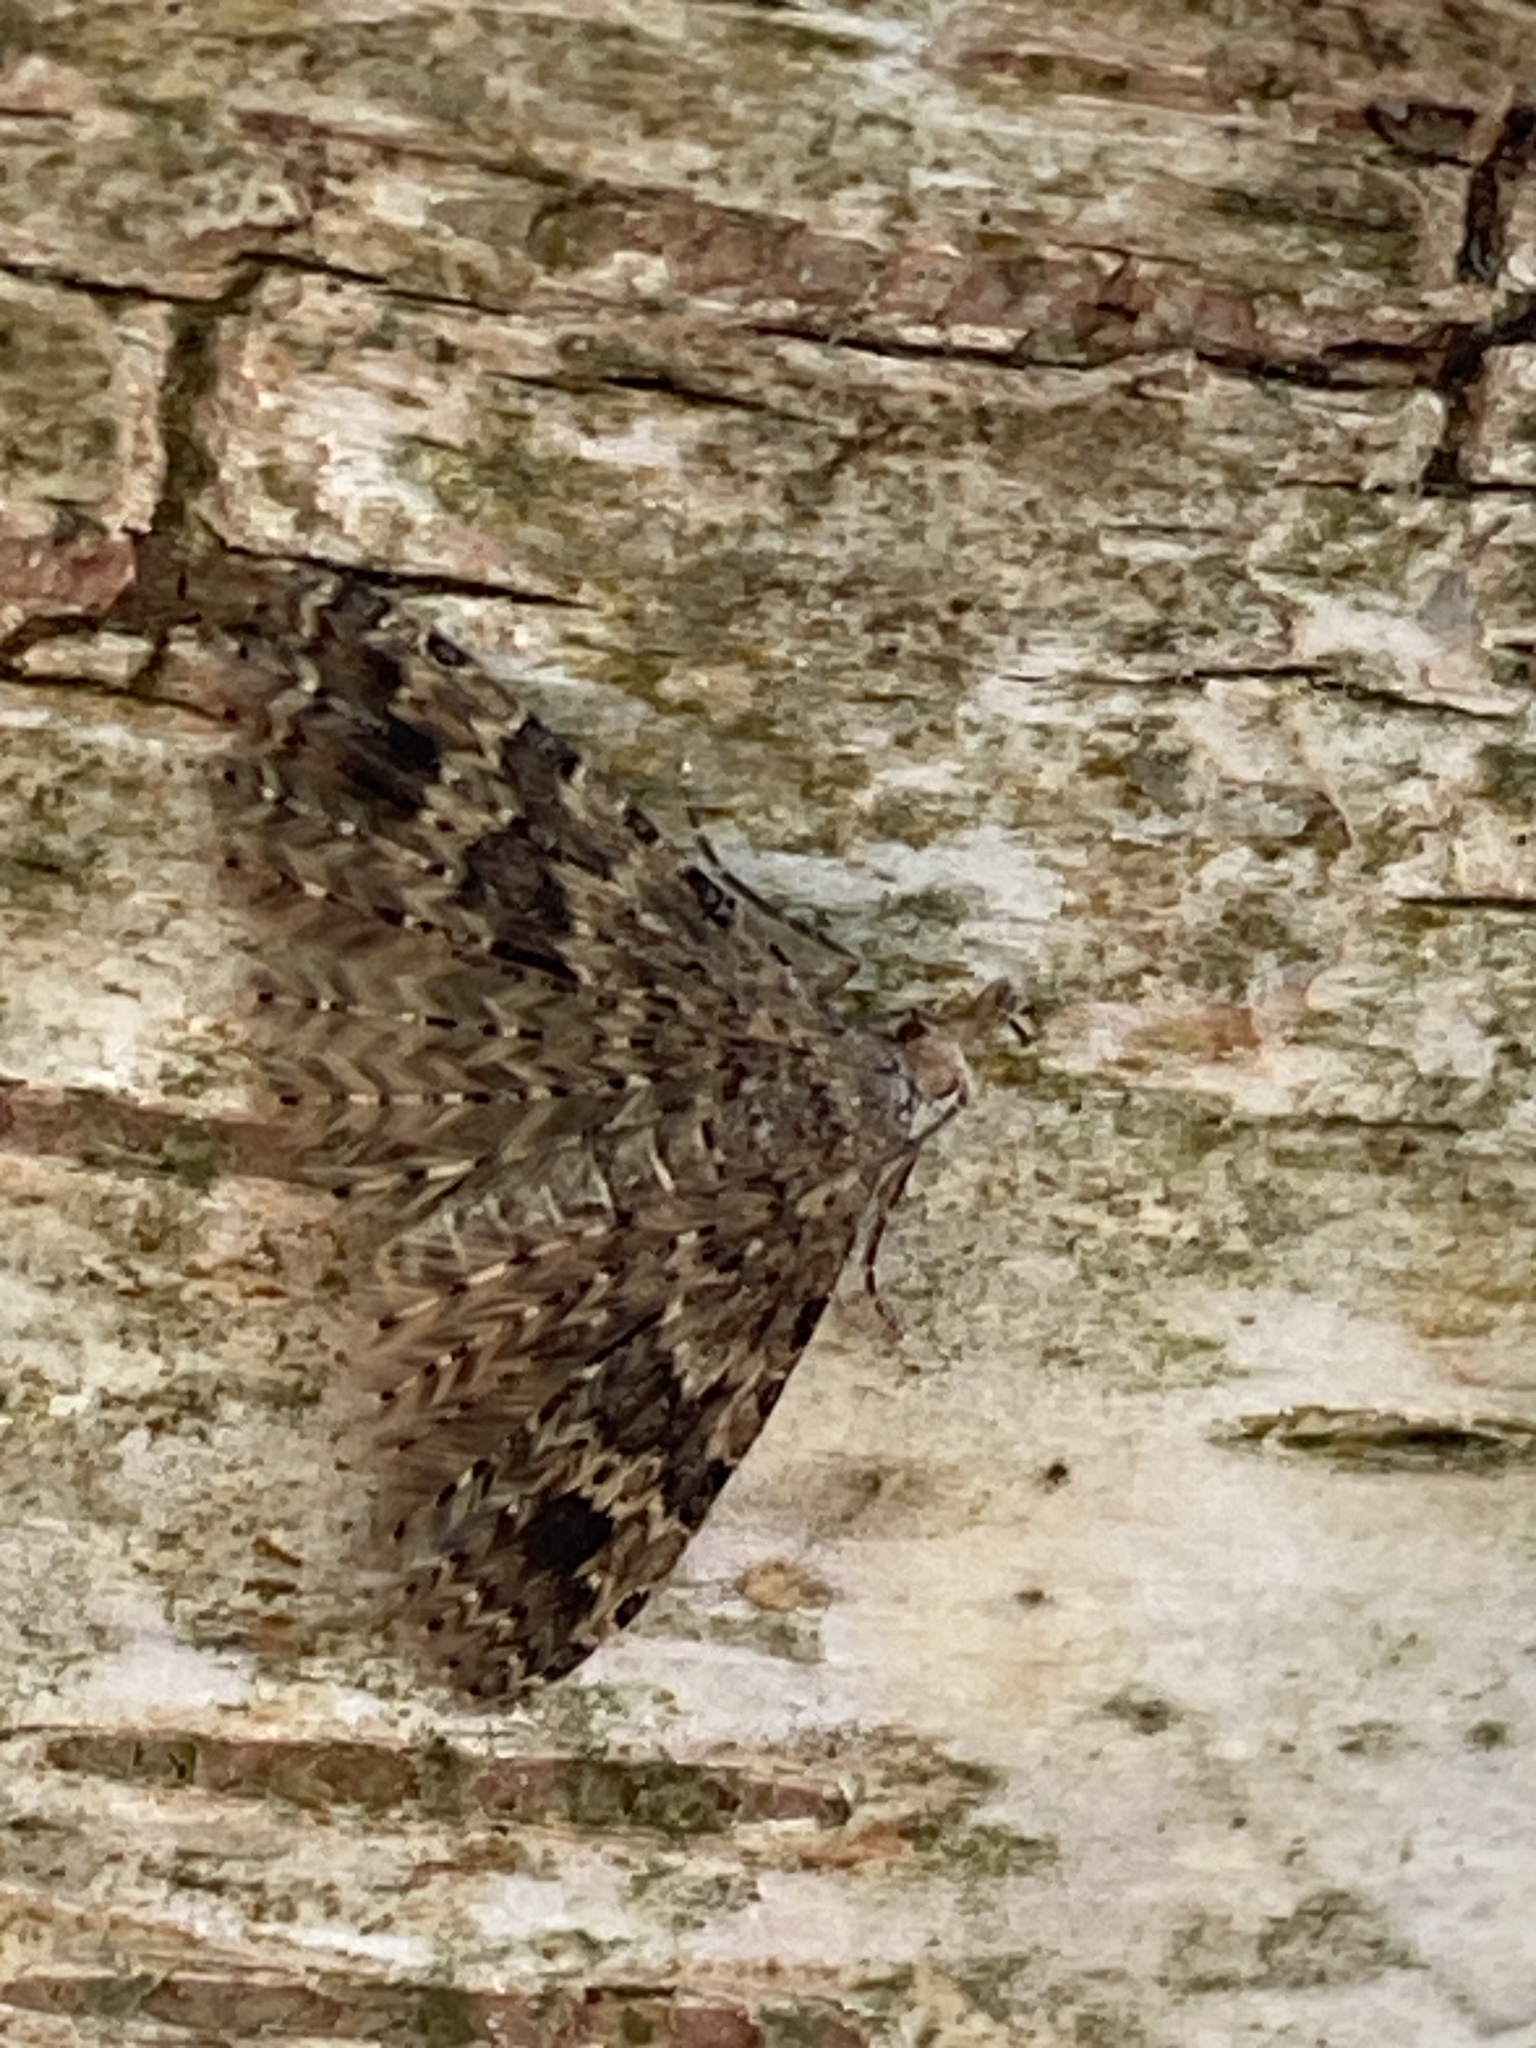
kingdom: Animalia
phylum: Arthropoda
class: Insecta
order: Lepidoptera
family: Alucitidae
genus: Alucita
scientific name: Alucita hexadactyla
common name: Twenty-plume moth
